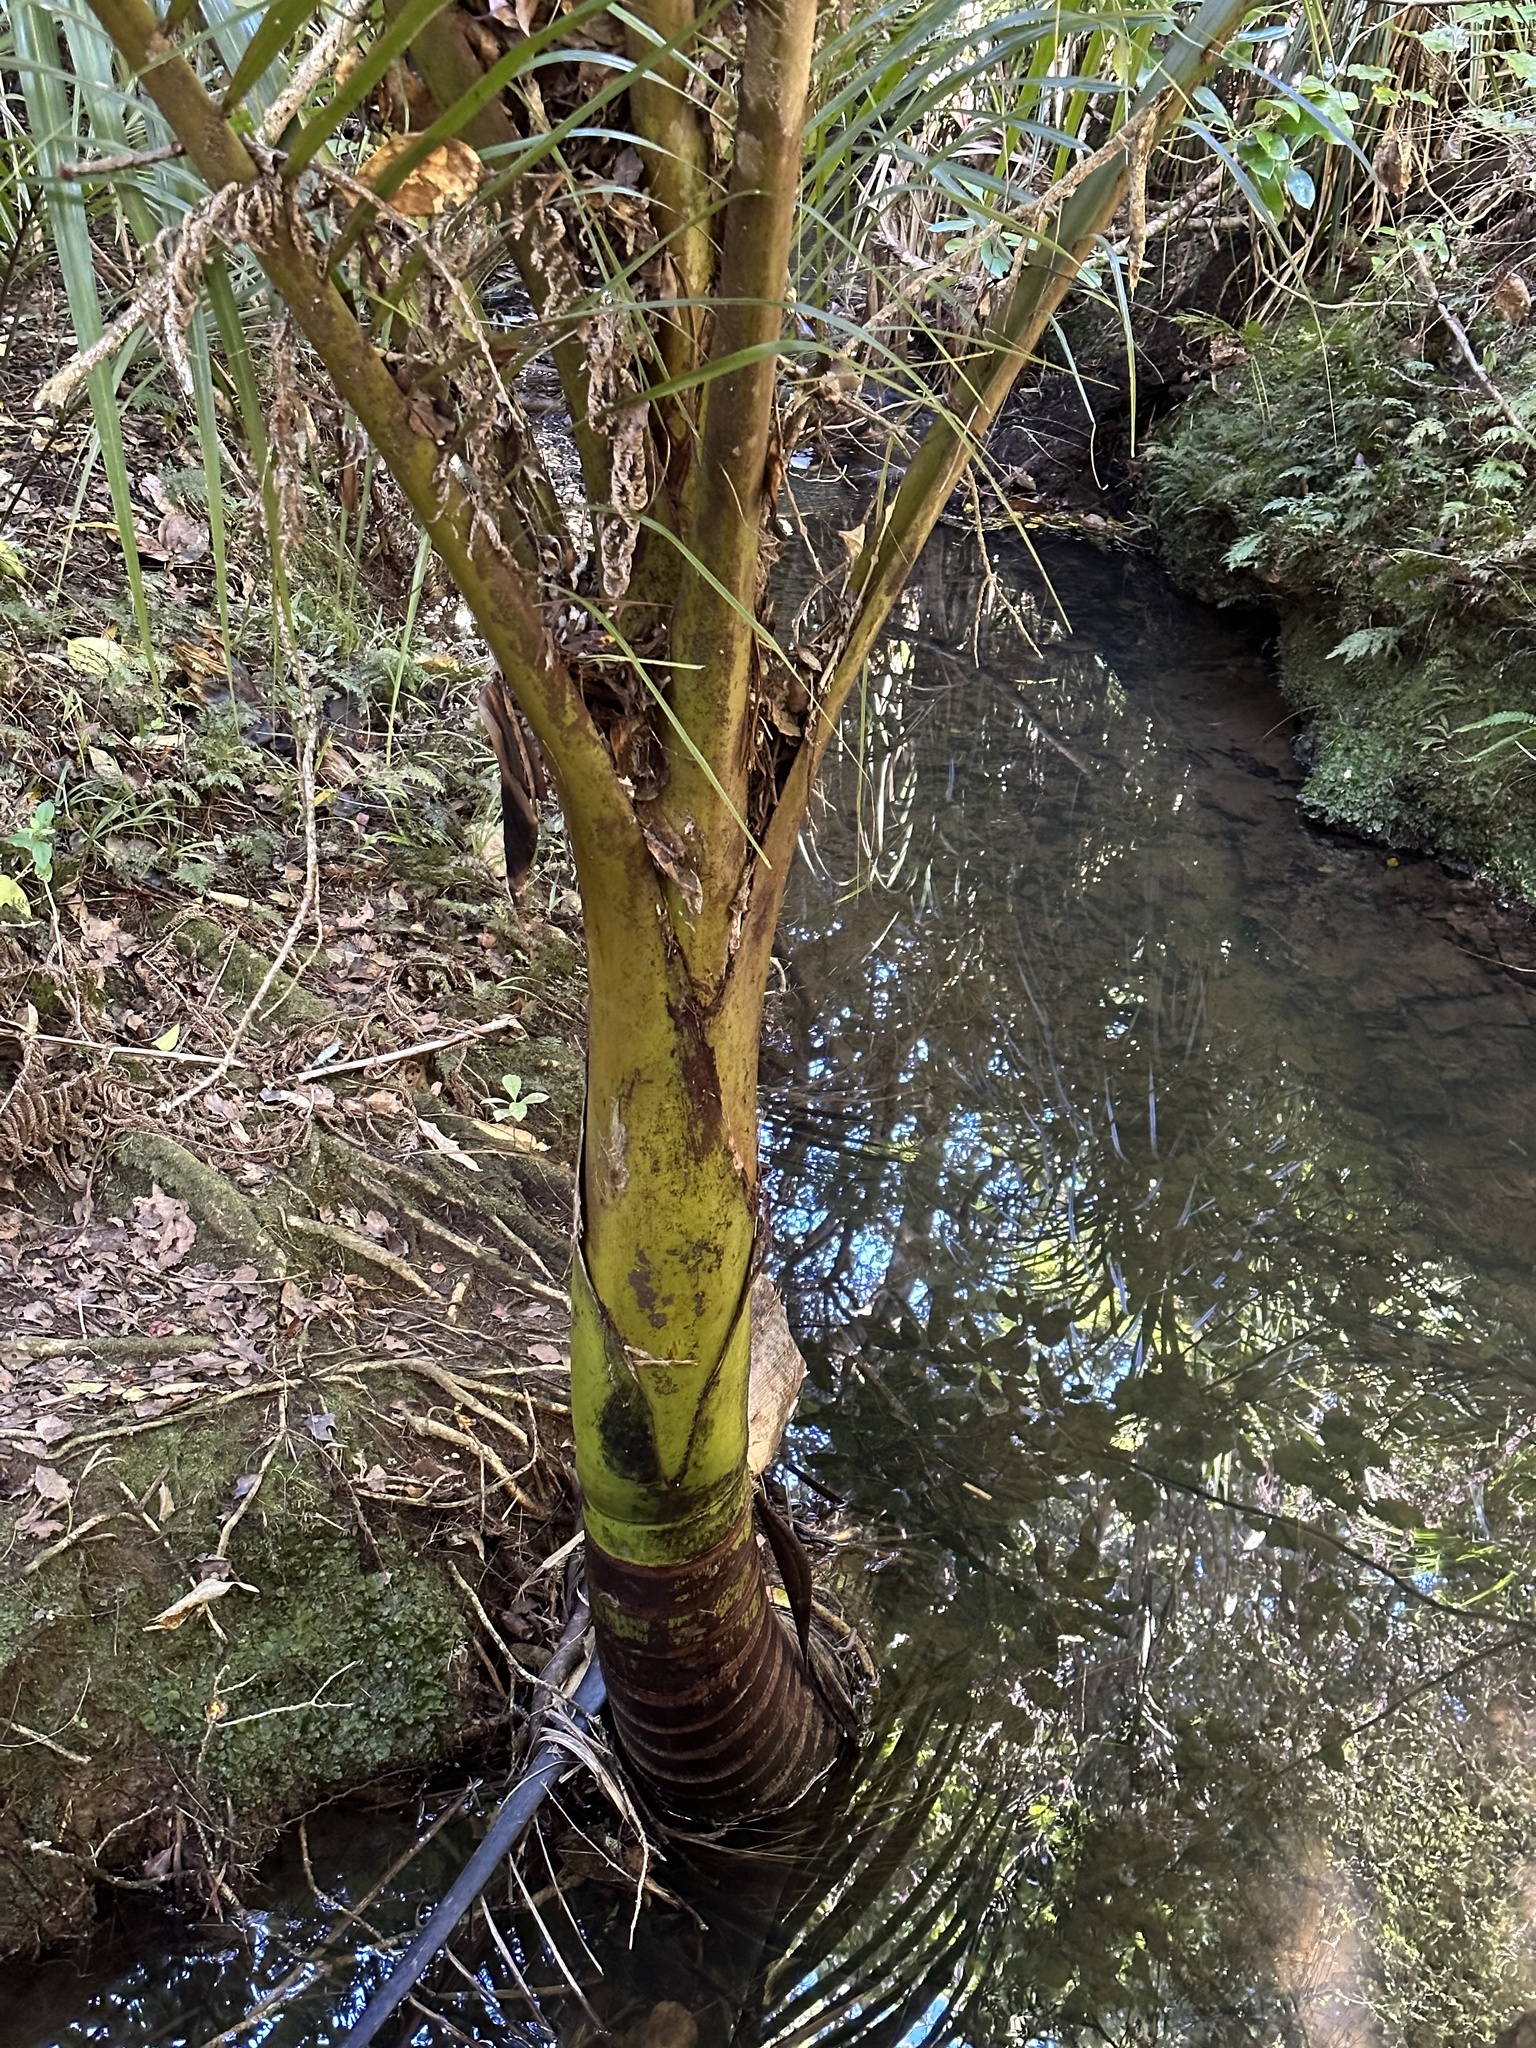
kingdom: Plantae
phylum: Tracheophyta
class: Liliopsida
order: Arecales
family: Arecaceae
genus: Rhopalostylis
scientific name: Rhopalostylis sapida
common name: Feather-duster palm
